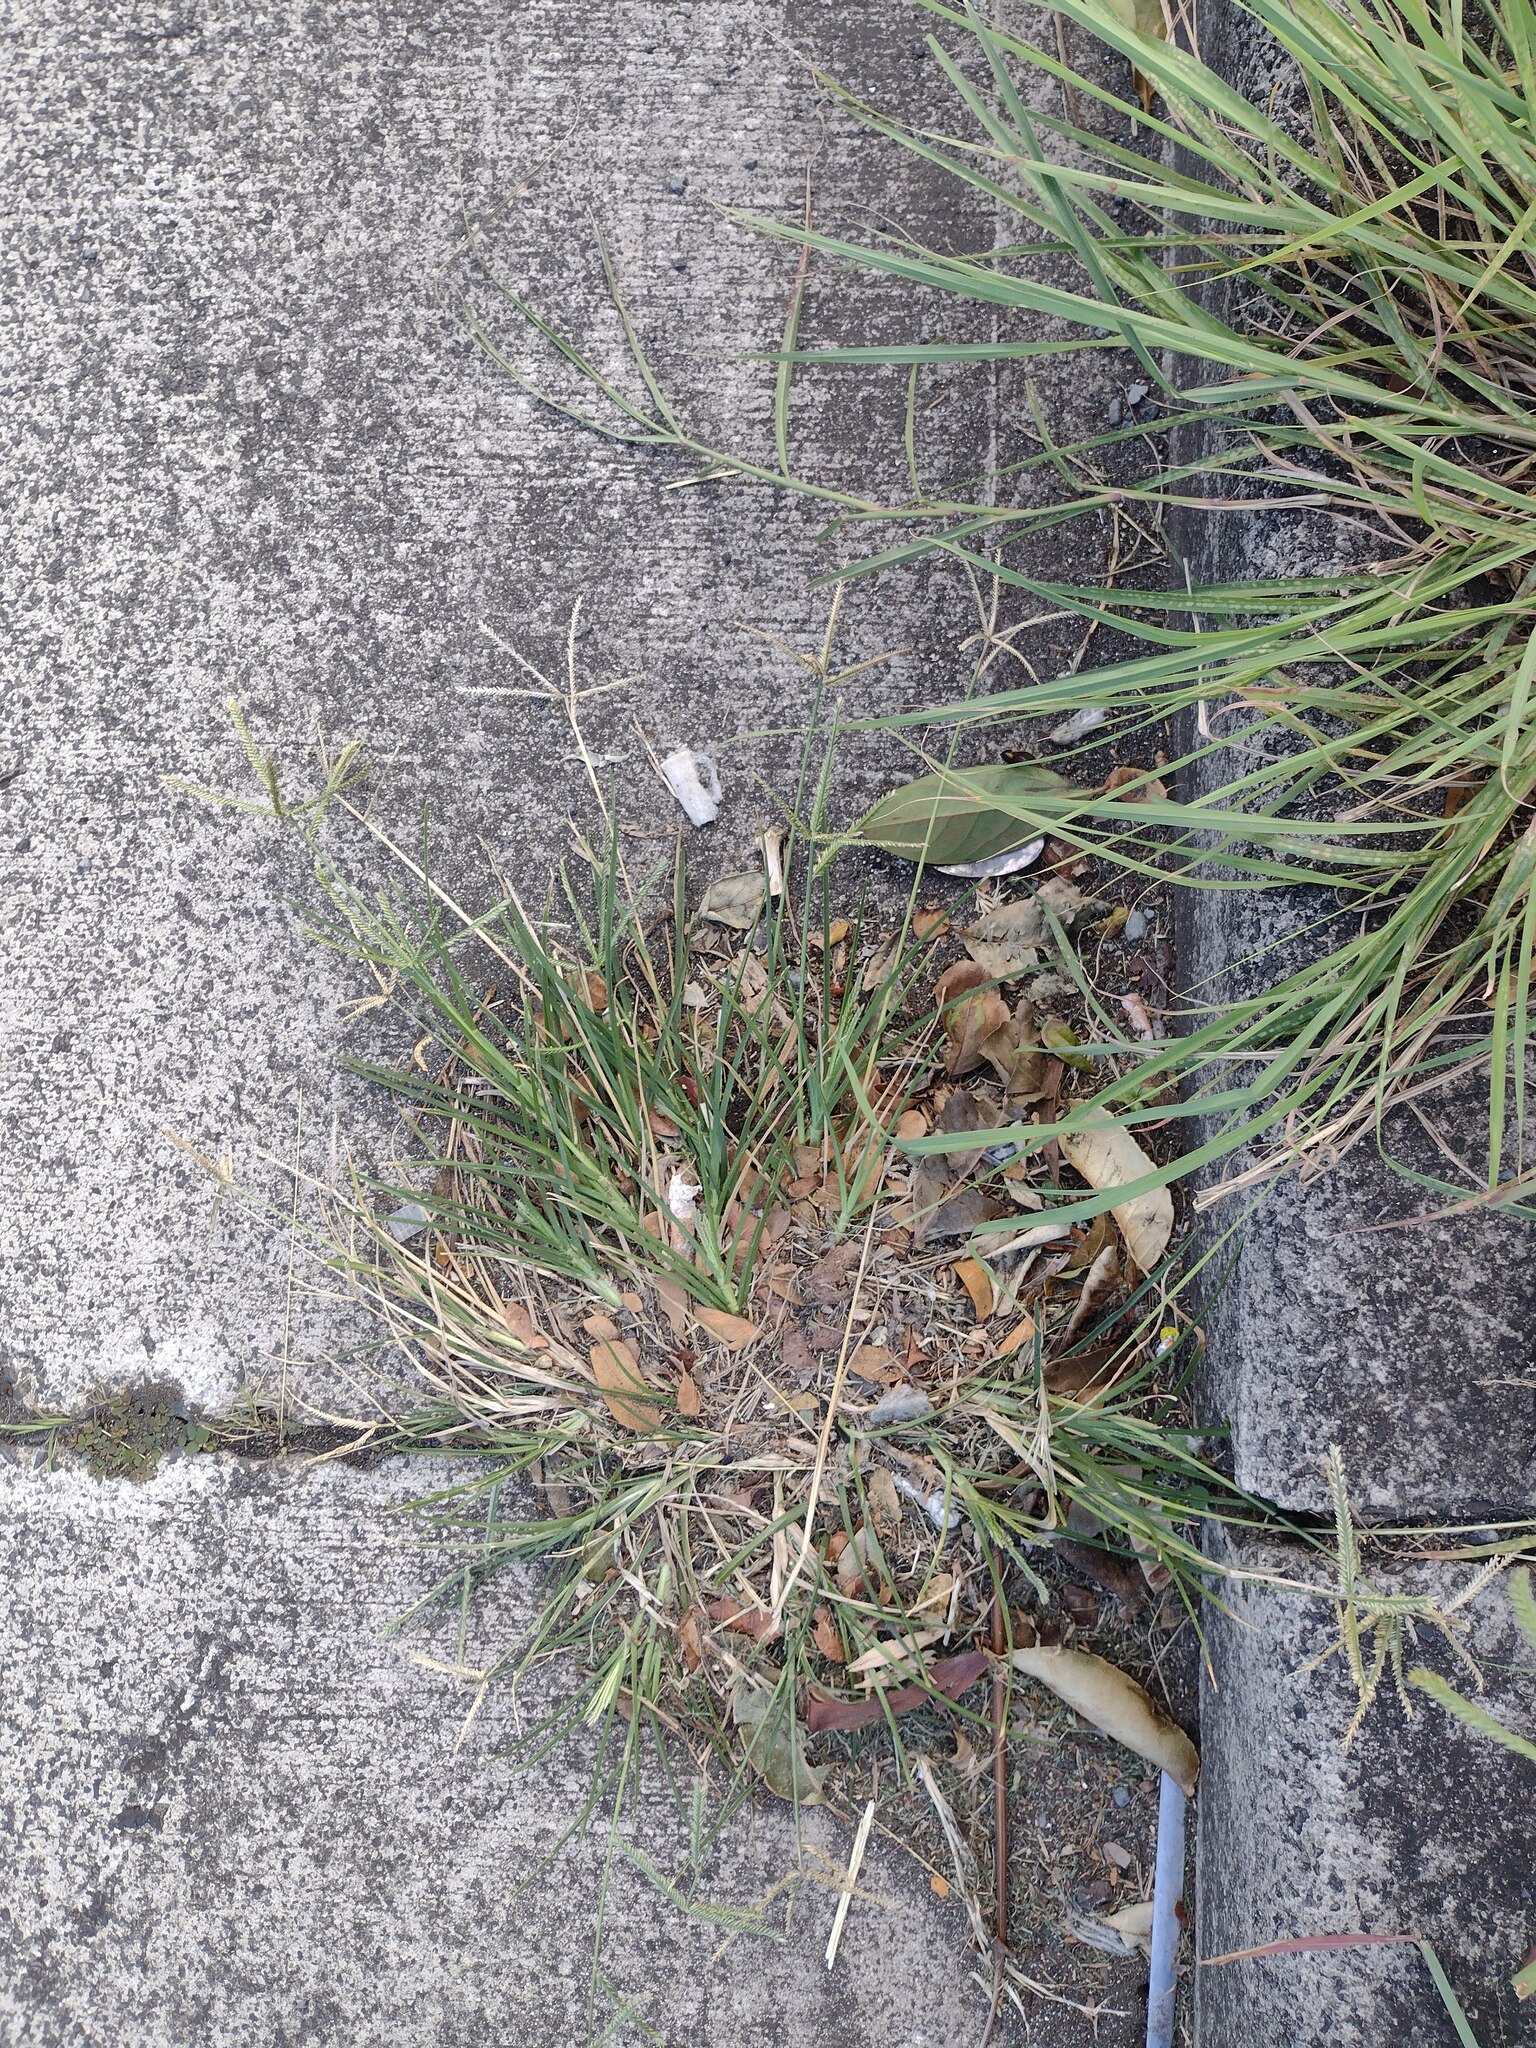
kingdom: Plantae
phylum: Tracheophyta
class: Liliopsida
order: Poales
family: Poaceae
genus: Eleusine
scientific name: Eleusine indica
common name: Yard-grass
